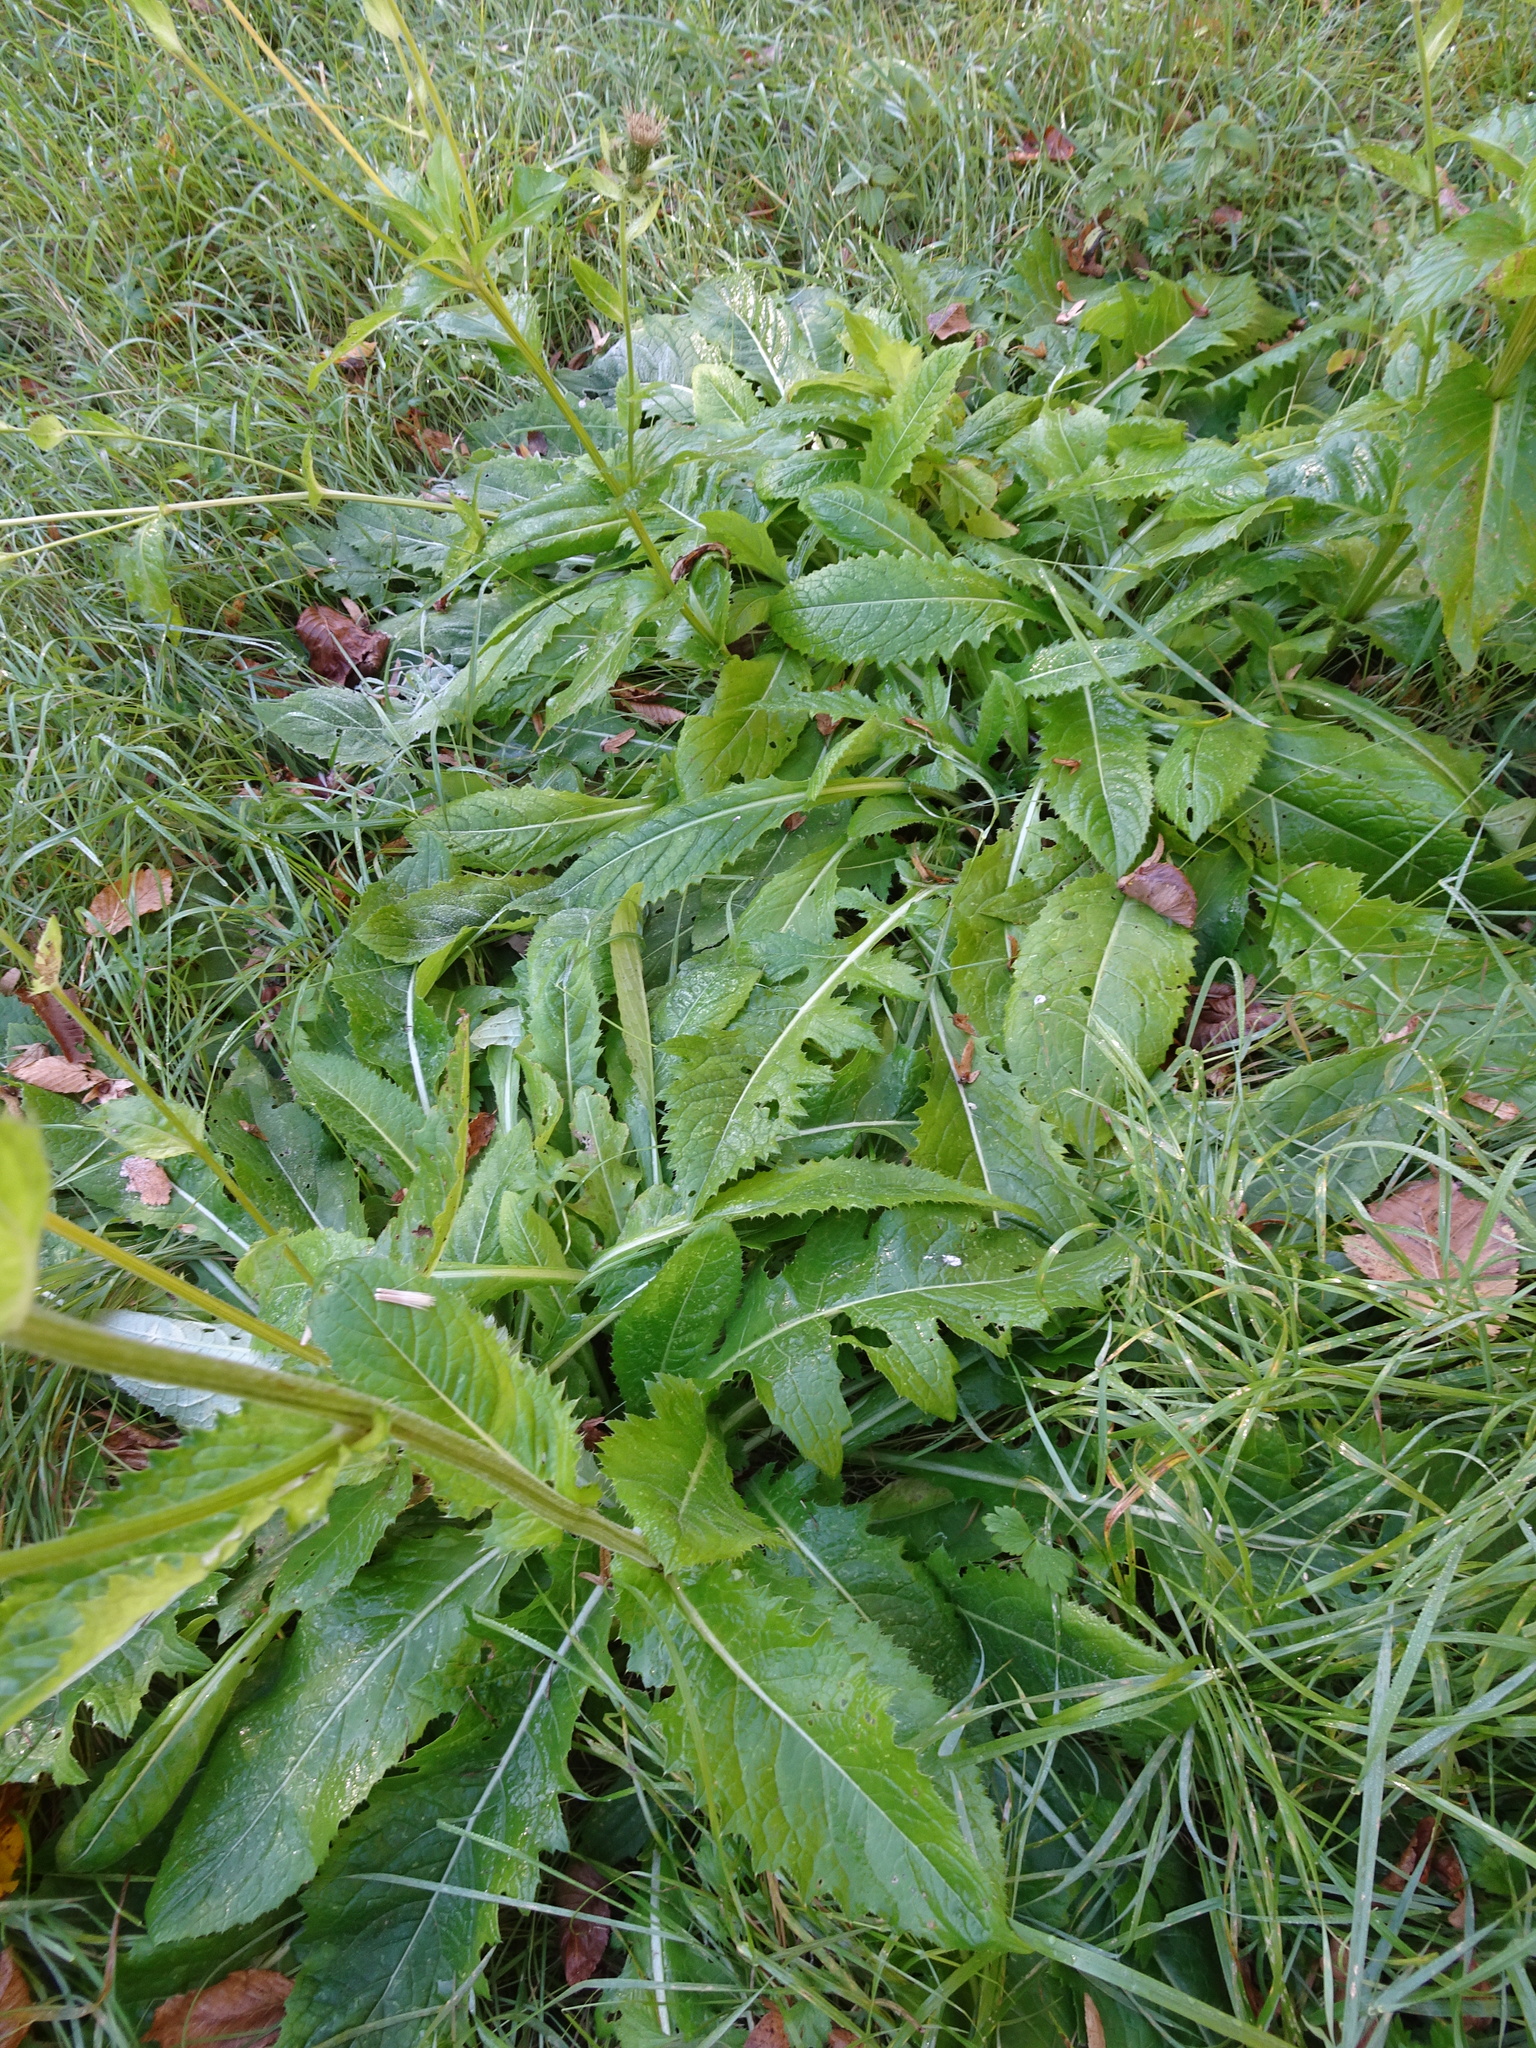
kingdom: Plantae
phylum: Tracheophyta
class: Magnoliopsida
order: Asterales
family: Asteraceae
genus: Cirsium
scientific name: Cirsium oleraceum
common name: Cabbage thistle
